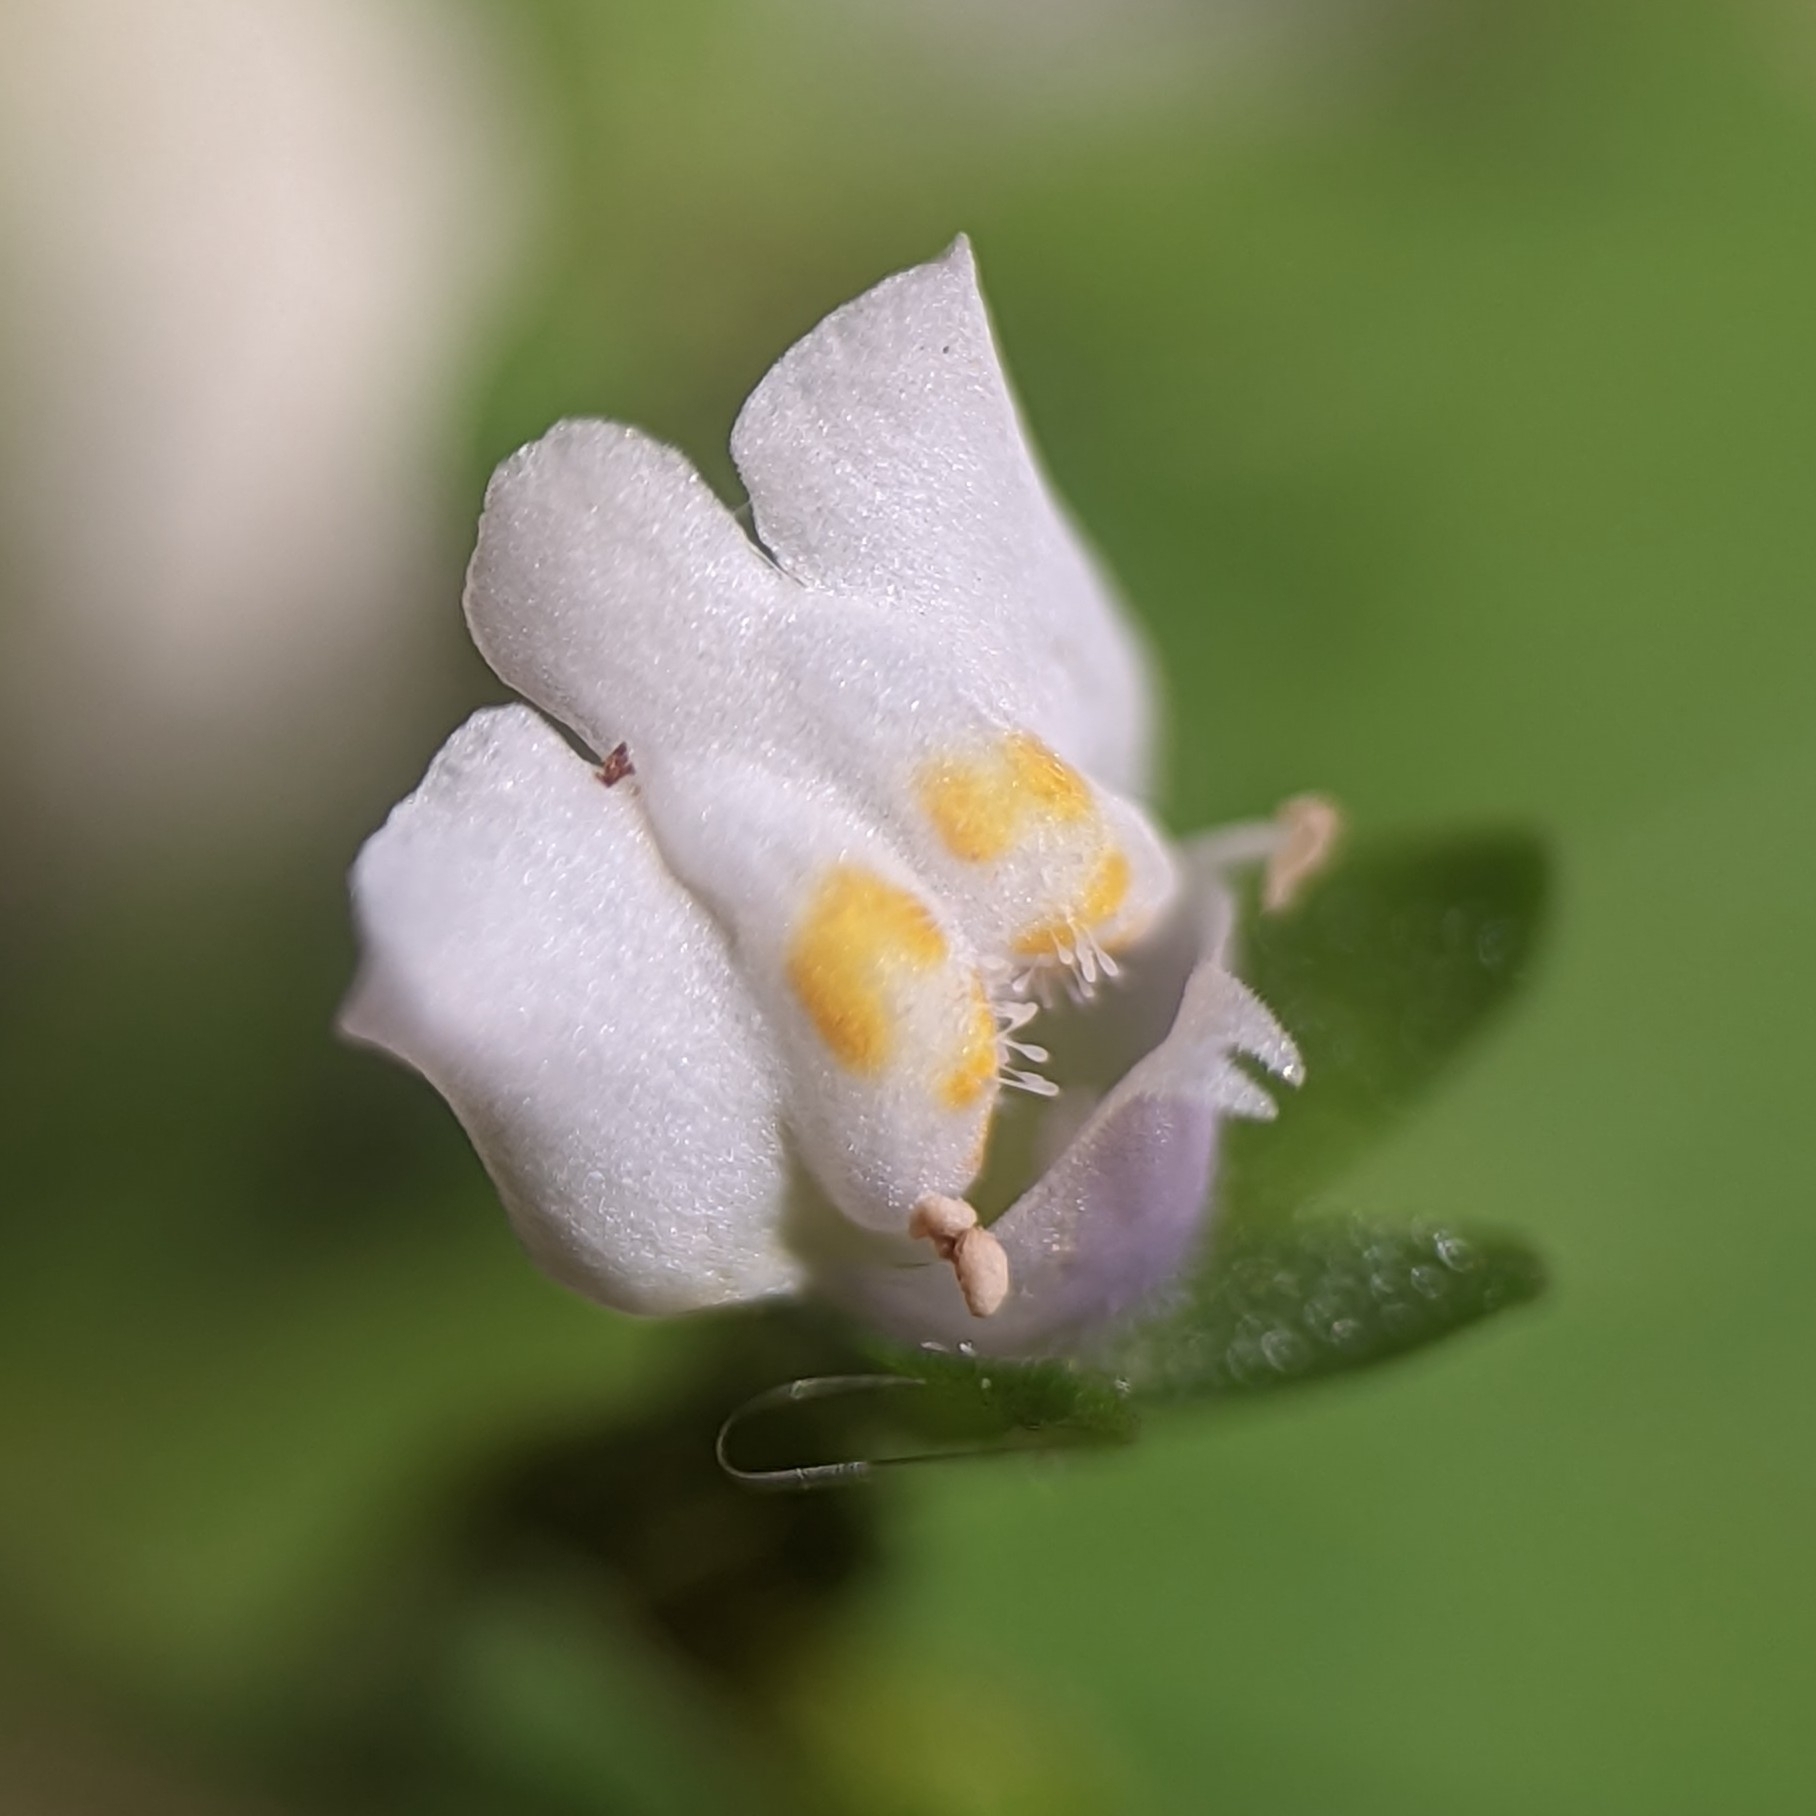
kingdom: Plantae
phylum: Tracheophyta
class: Magnoliopsida
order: Lamiales
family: Mazaceae
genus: Mazus
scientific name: Mazus pumilus
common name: Japanese mazus
